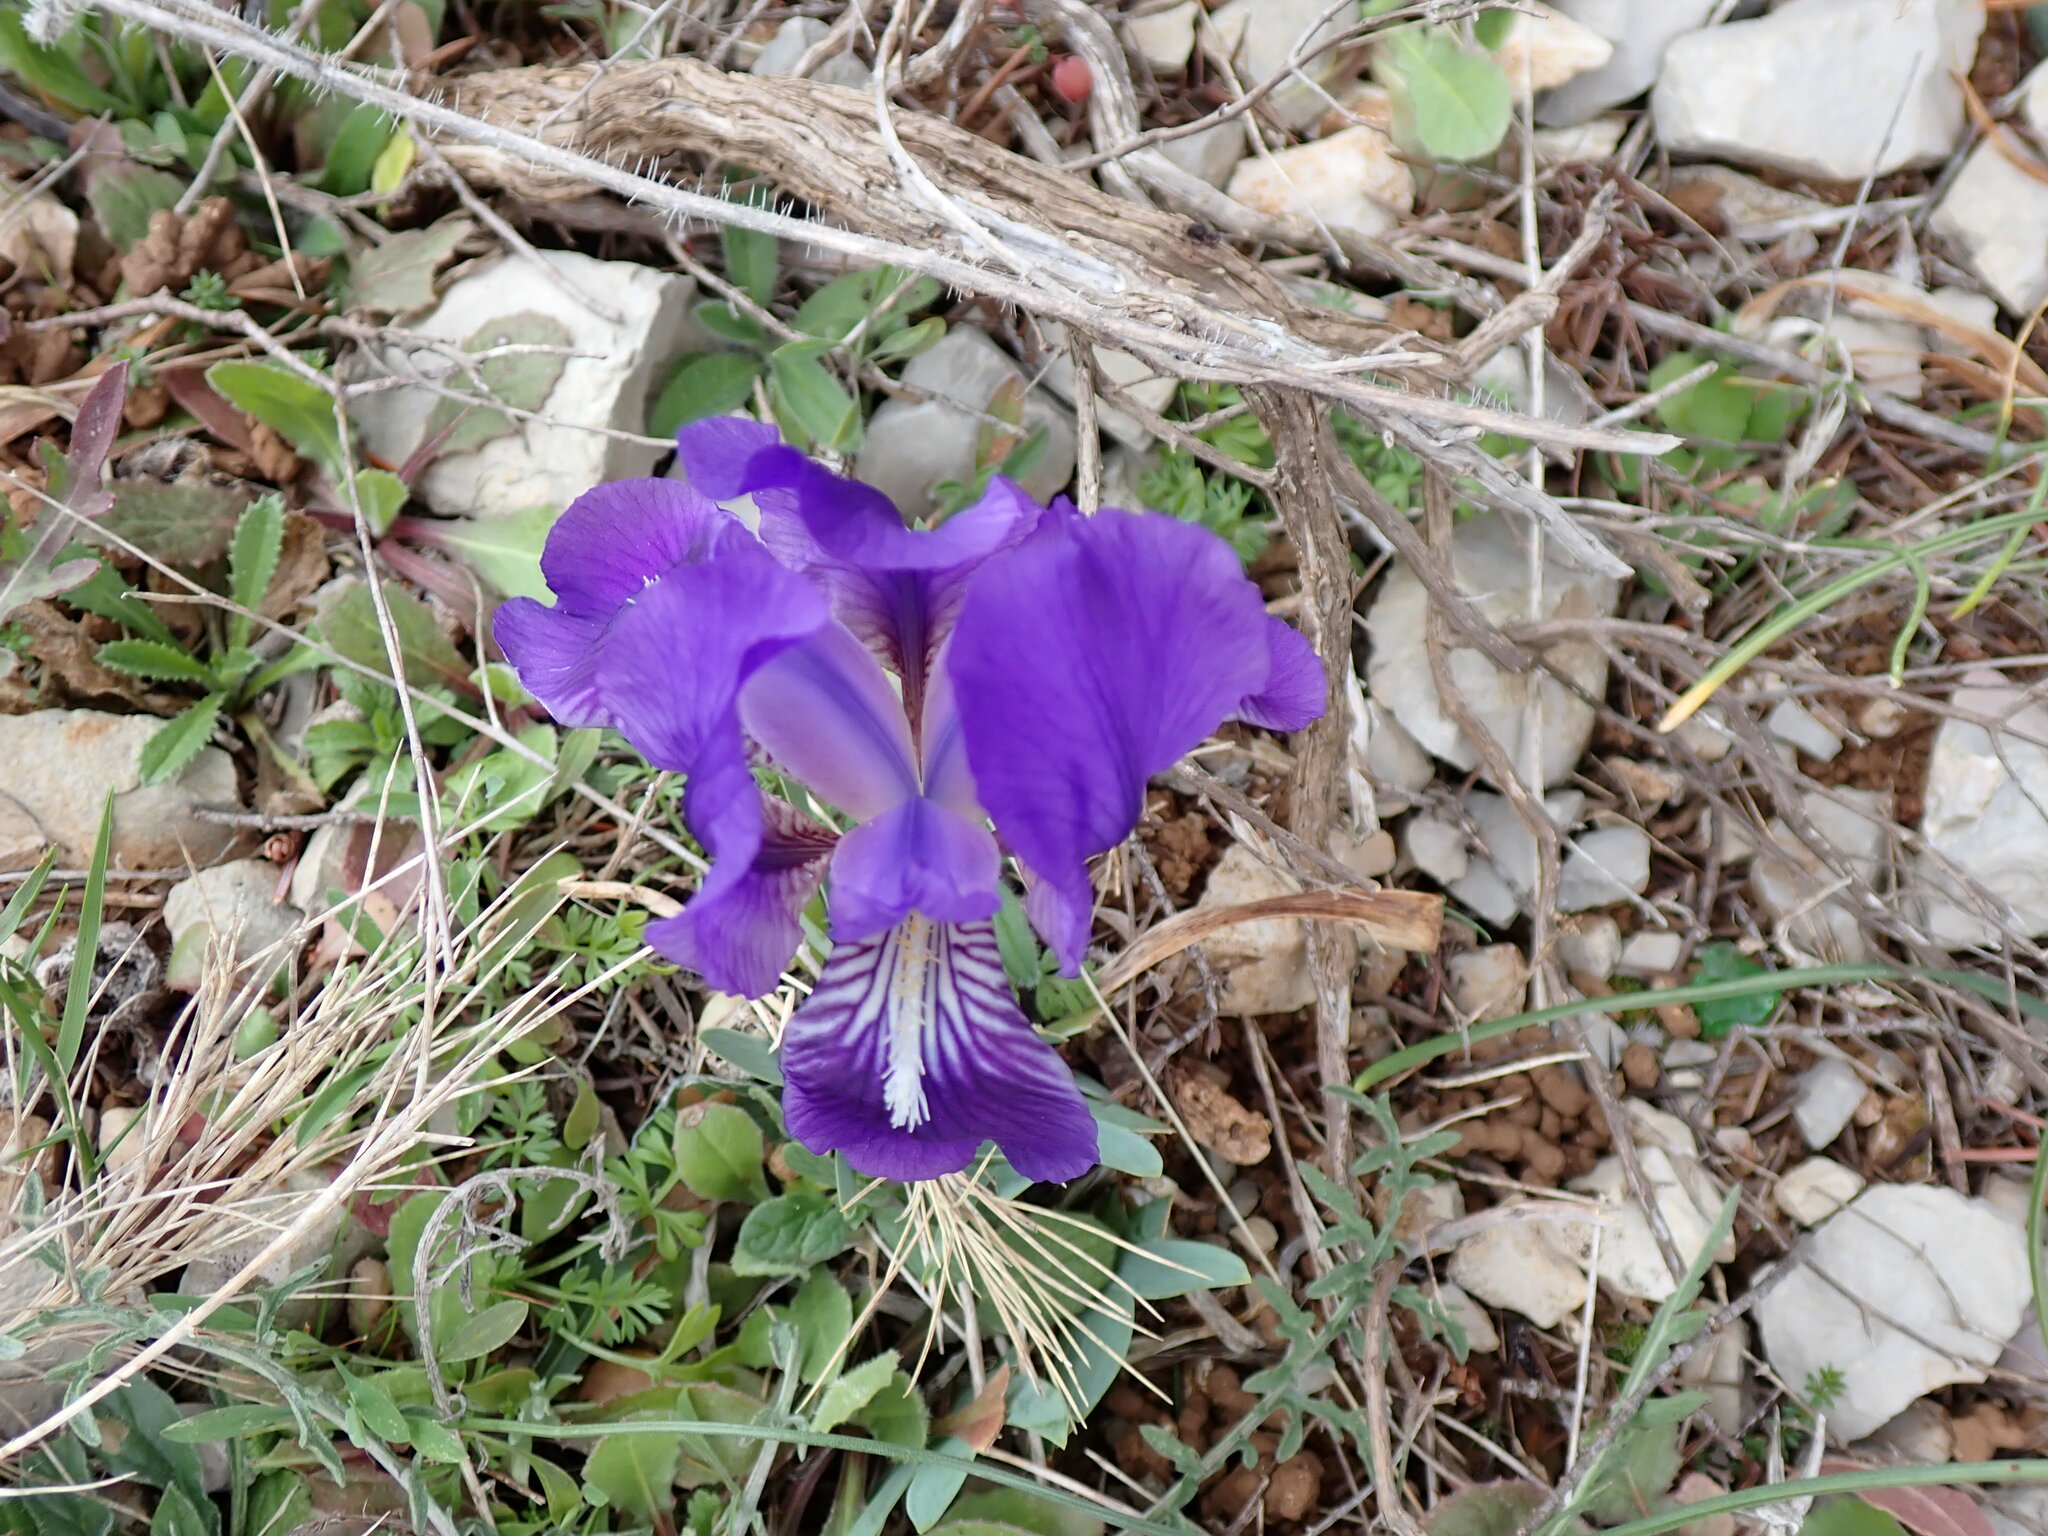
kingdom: Plantae
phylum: Tracheophyta
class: Liliopsida
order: Asparagales
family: Iridaceae
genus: Iris
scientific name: Iris lutescens
